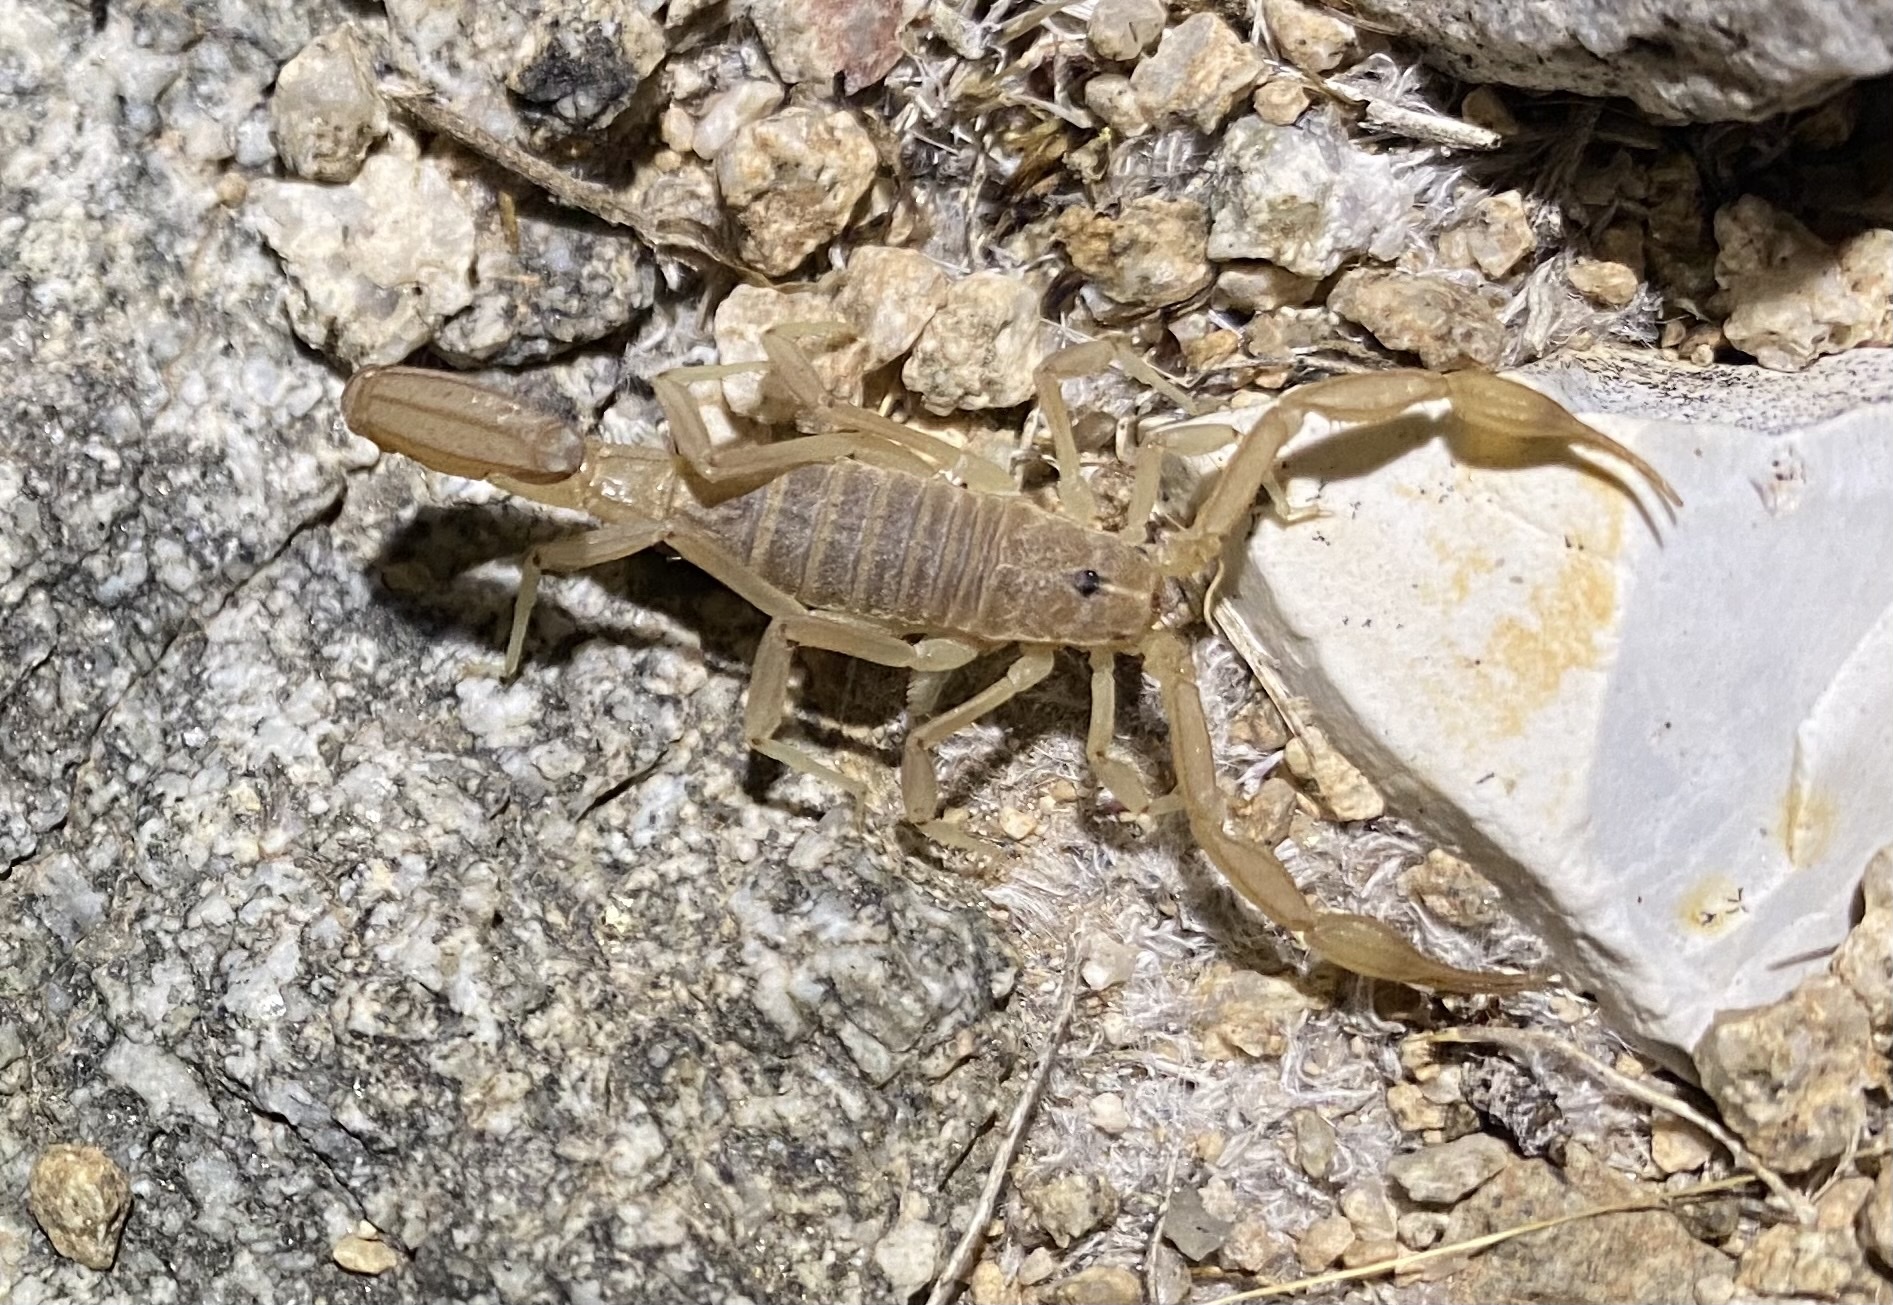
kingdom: Animalia
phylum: Arthropoda
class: Arachnida
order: Scorpiones
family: Vaejovidae
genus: Paravaejovis
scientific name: Paravaejovis confusus
